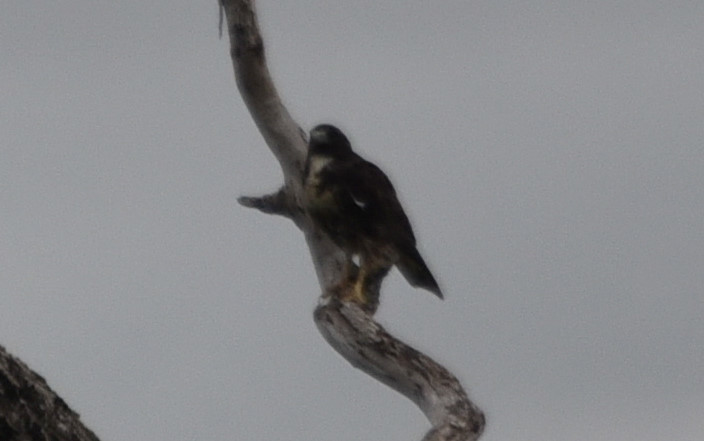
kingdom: Animalia
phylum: Chordata
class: Aves
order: Accipitriformes
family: Accipitridae
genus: Buteo
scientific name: Buteo albicaudatus
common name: White-tailed hawk
